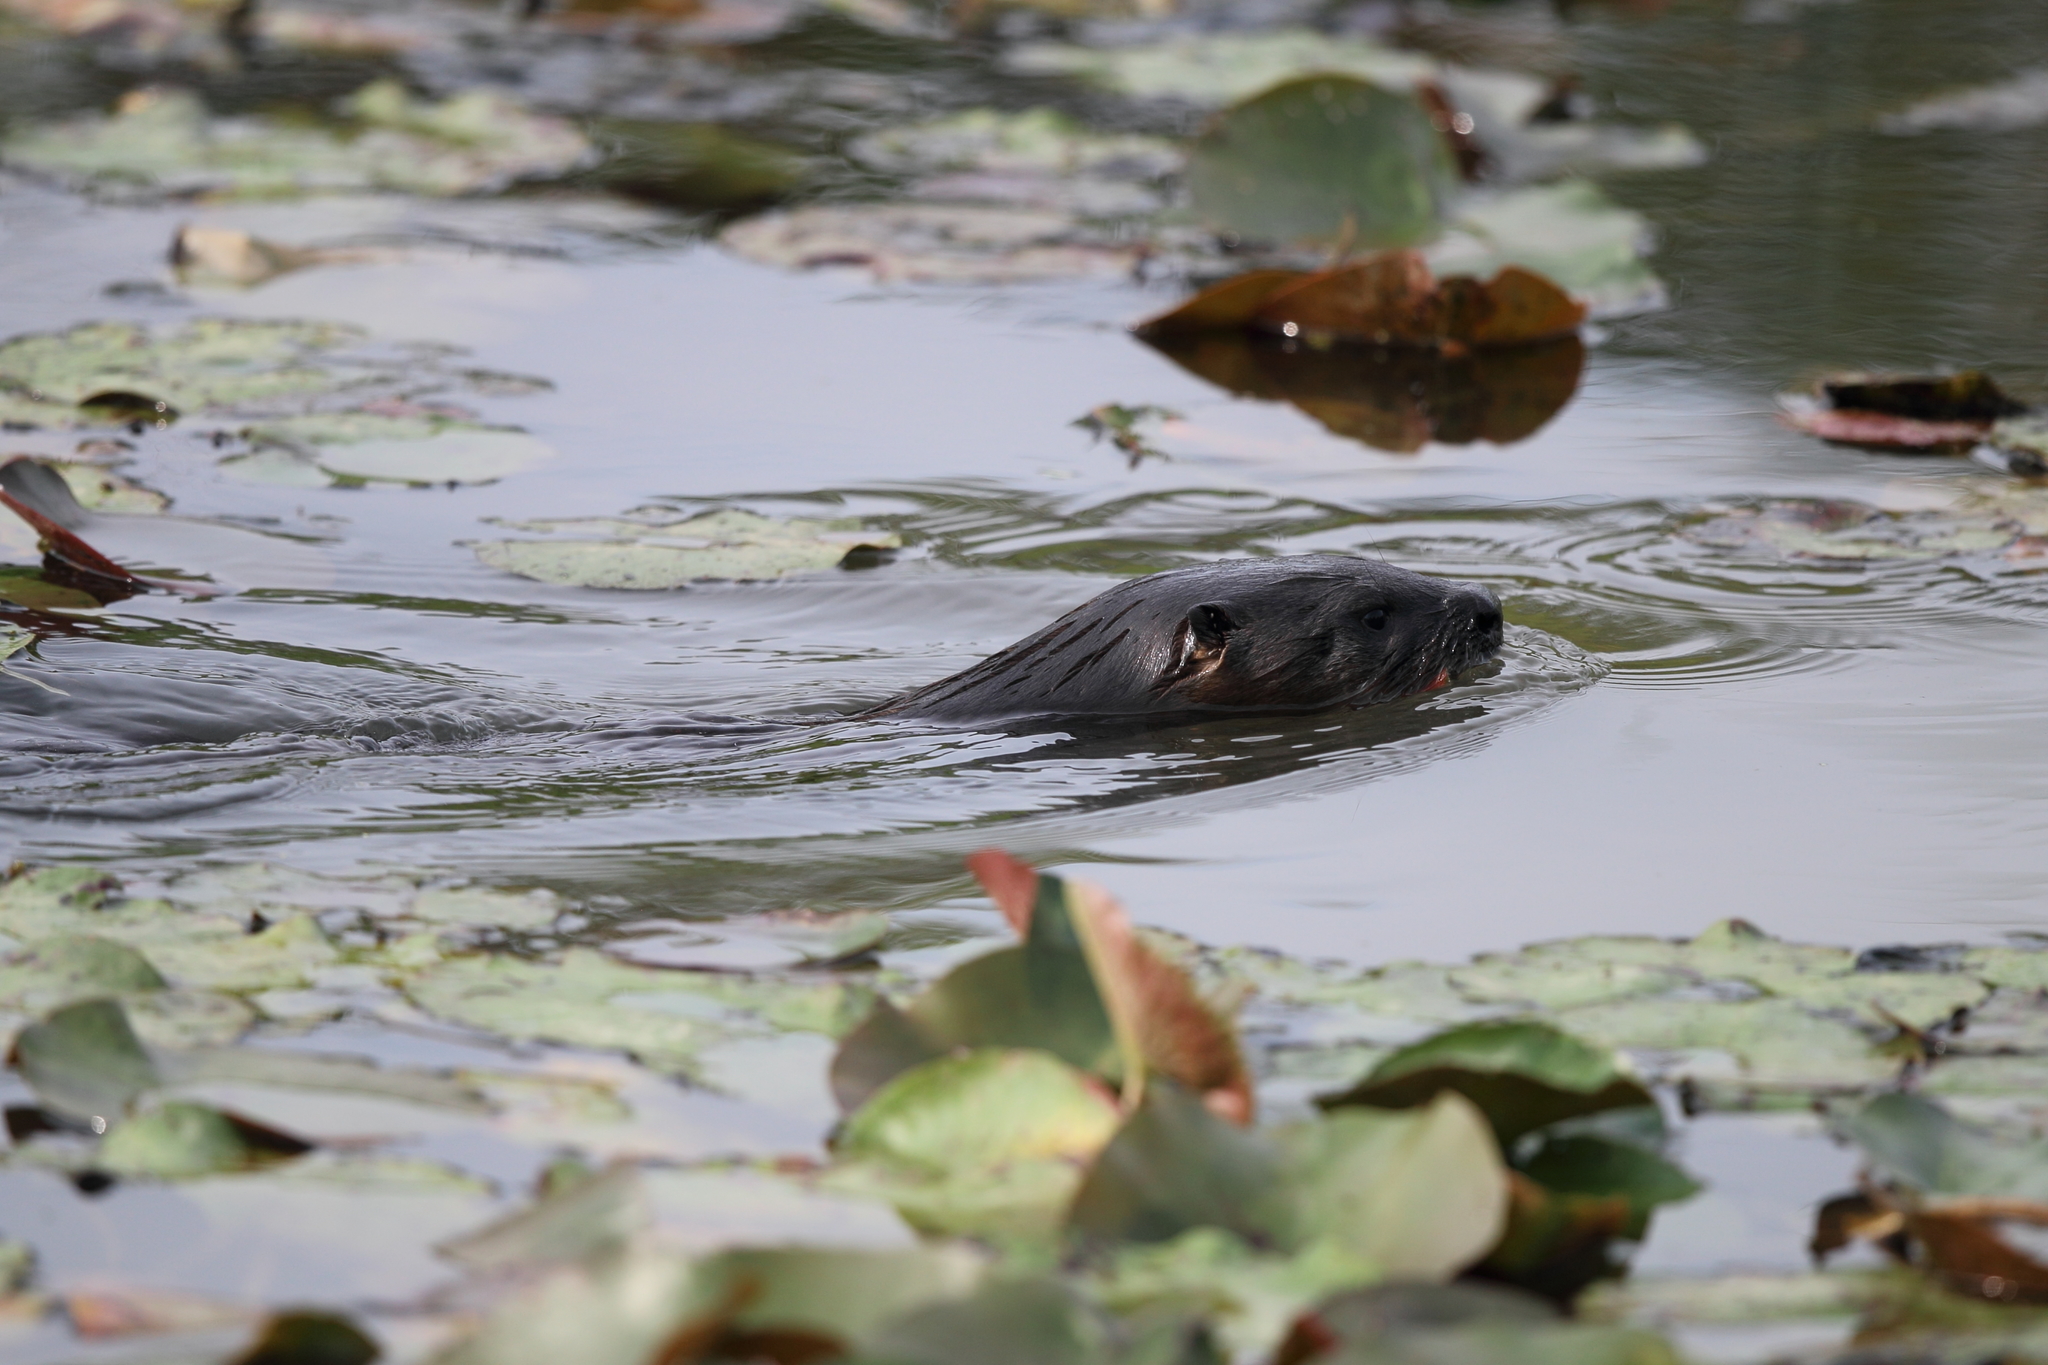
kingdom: Animalia
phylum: Chordata
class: Mammalia
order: Carnivora
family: Mustelidae
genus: Lontra
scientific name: Lontra canadensis
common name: North american river otter
